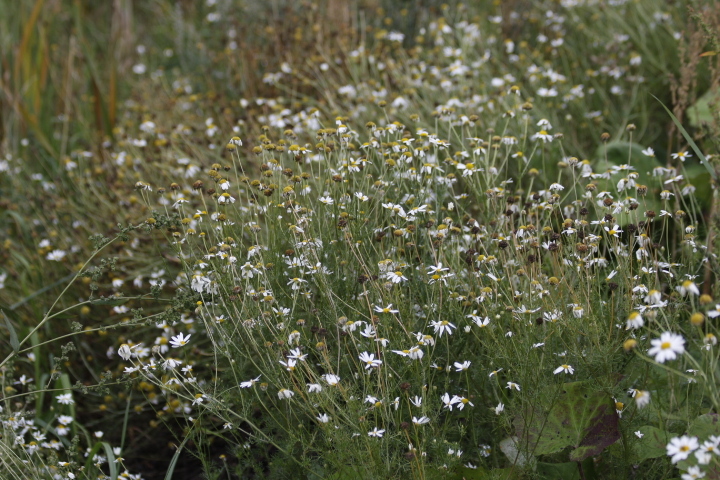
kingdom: Plantae
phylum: Tracheophyta
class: Magnoliopsida
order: Asterales
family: Asteraceae
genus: Tripleurospermum
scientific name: Tripleurospermum inodorum
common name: Scentless mayweed
